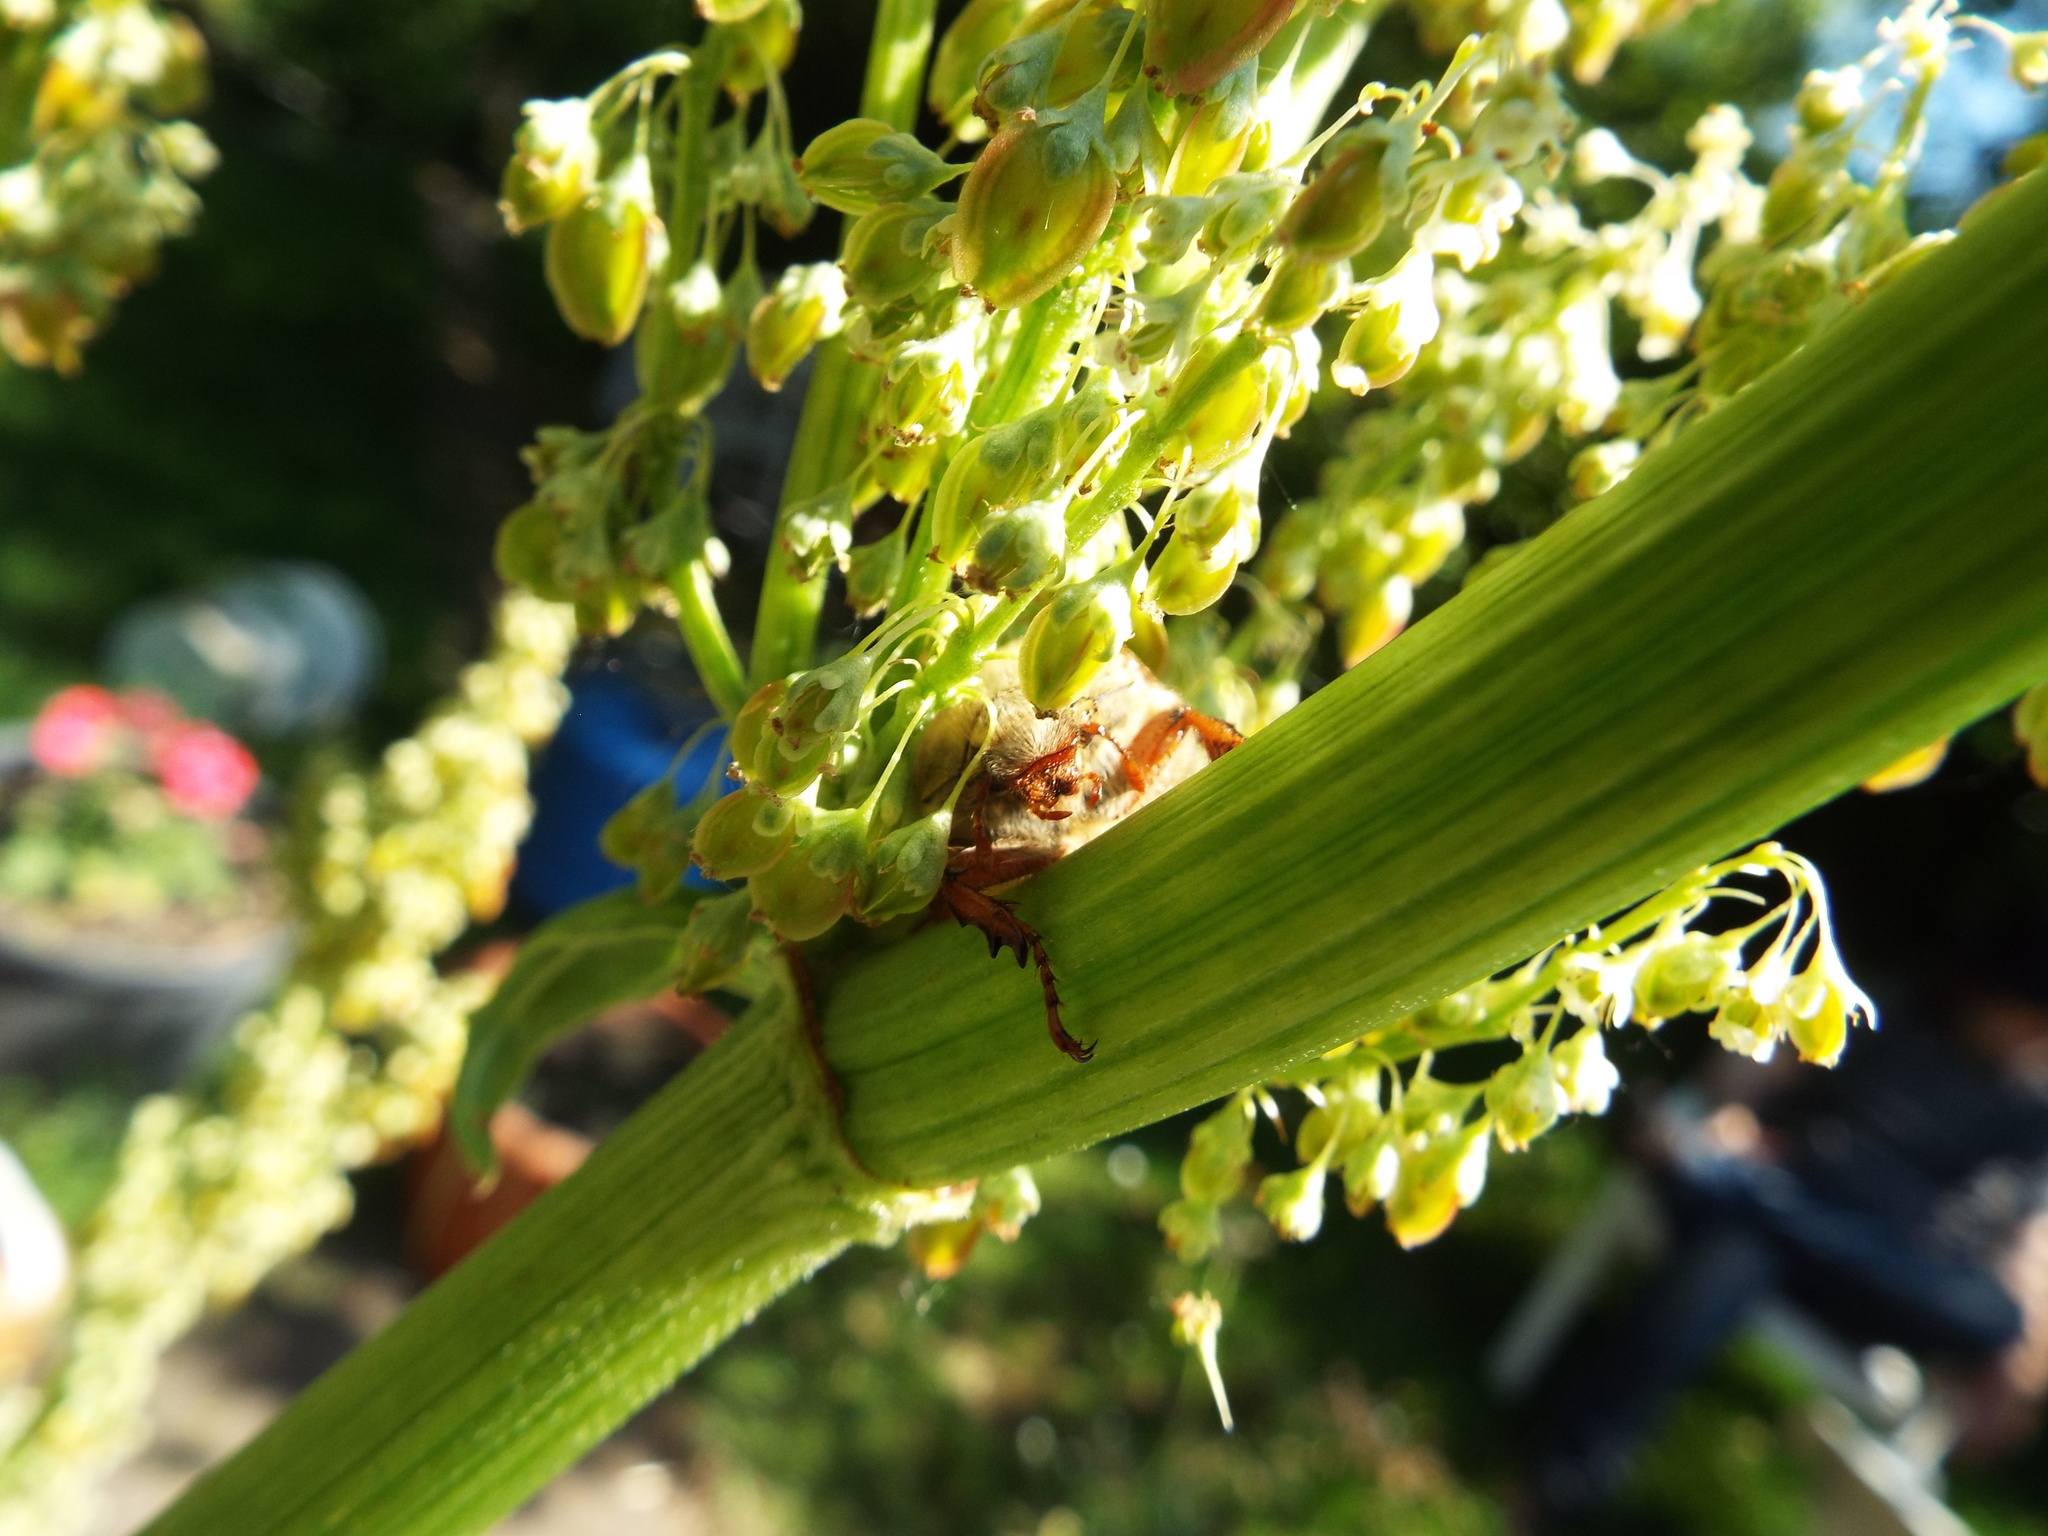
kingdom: Animalia
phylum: Arthropoda
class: Insecta
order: Coleoptera
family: Scarabaeidae
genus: Melolontha
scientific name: Melolontha melolontha
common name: Cockchafer maybeetle
